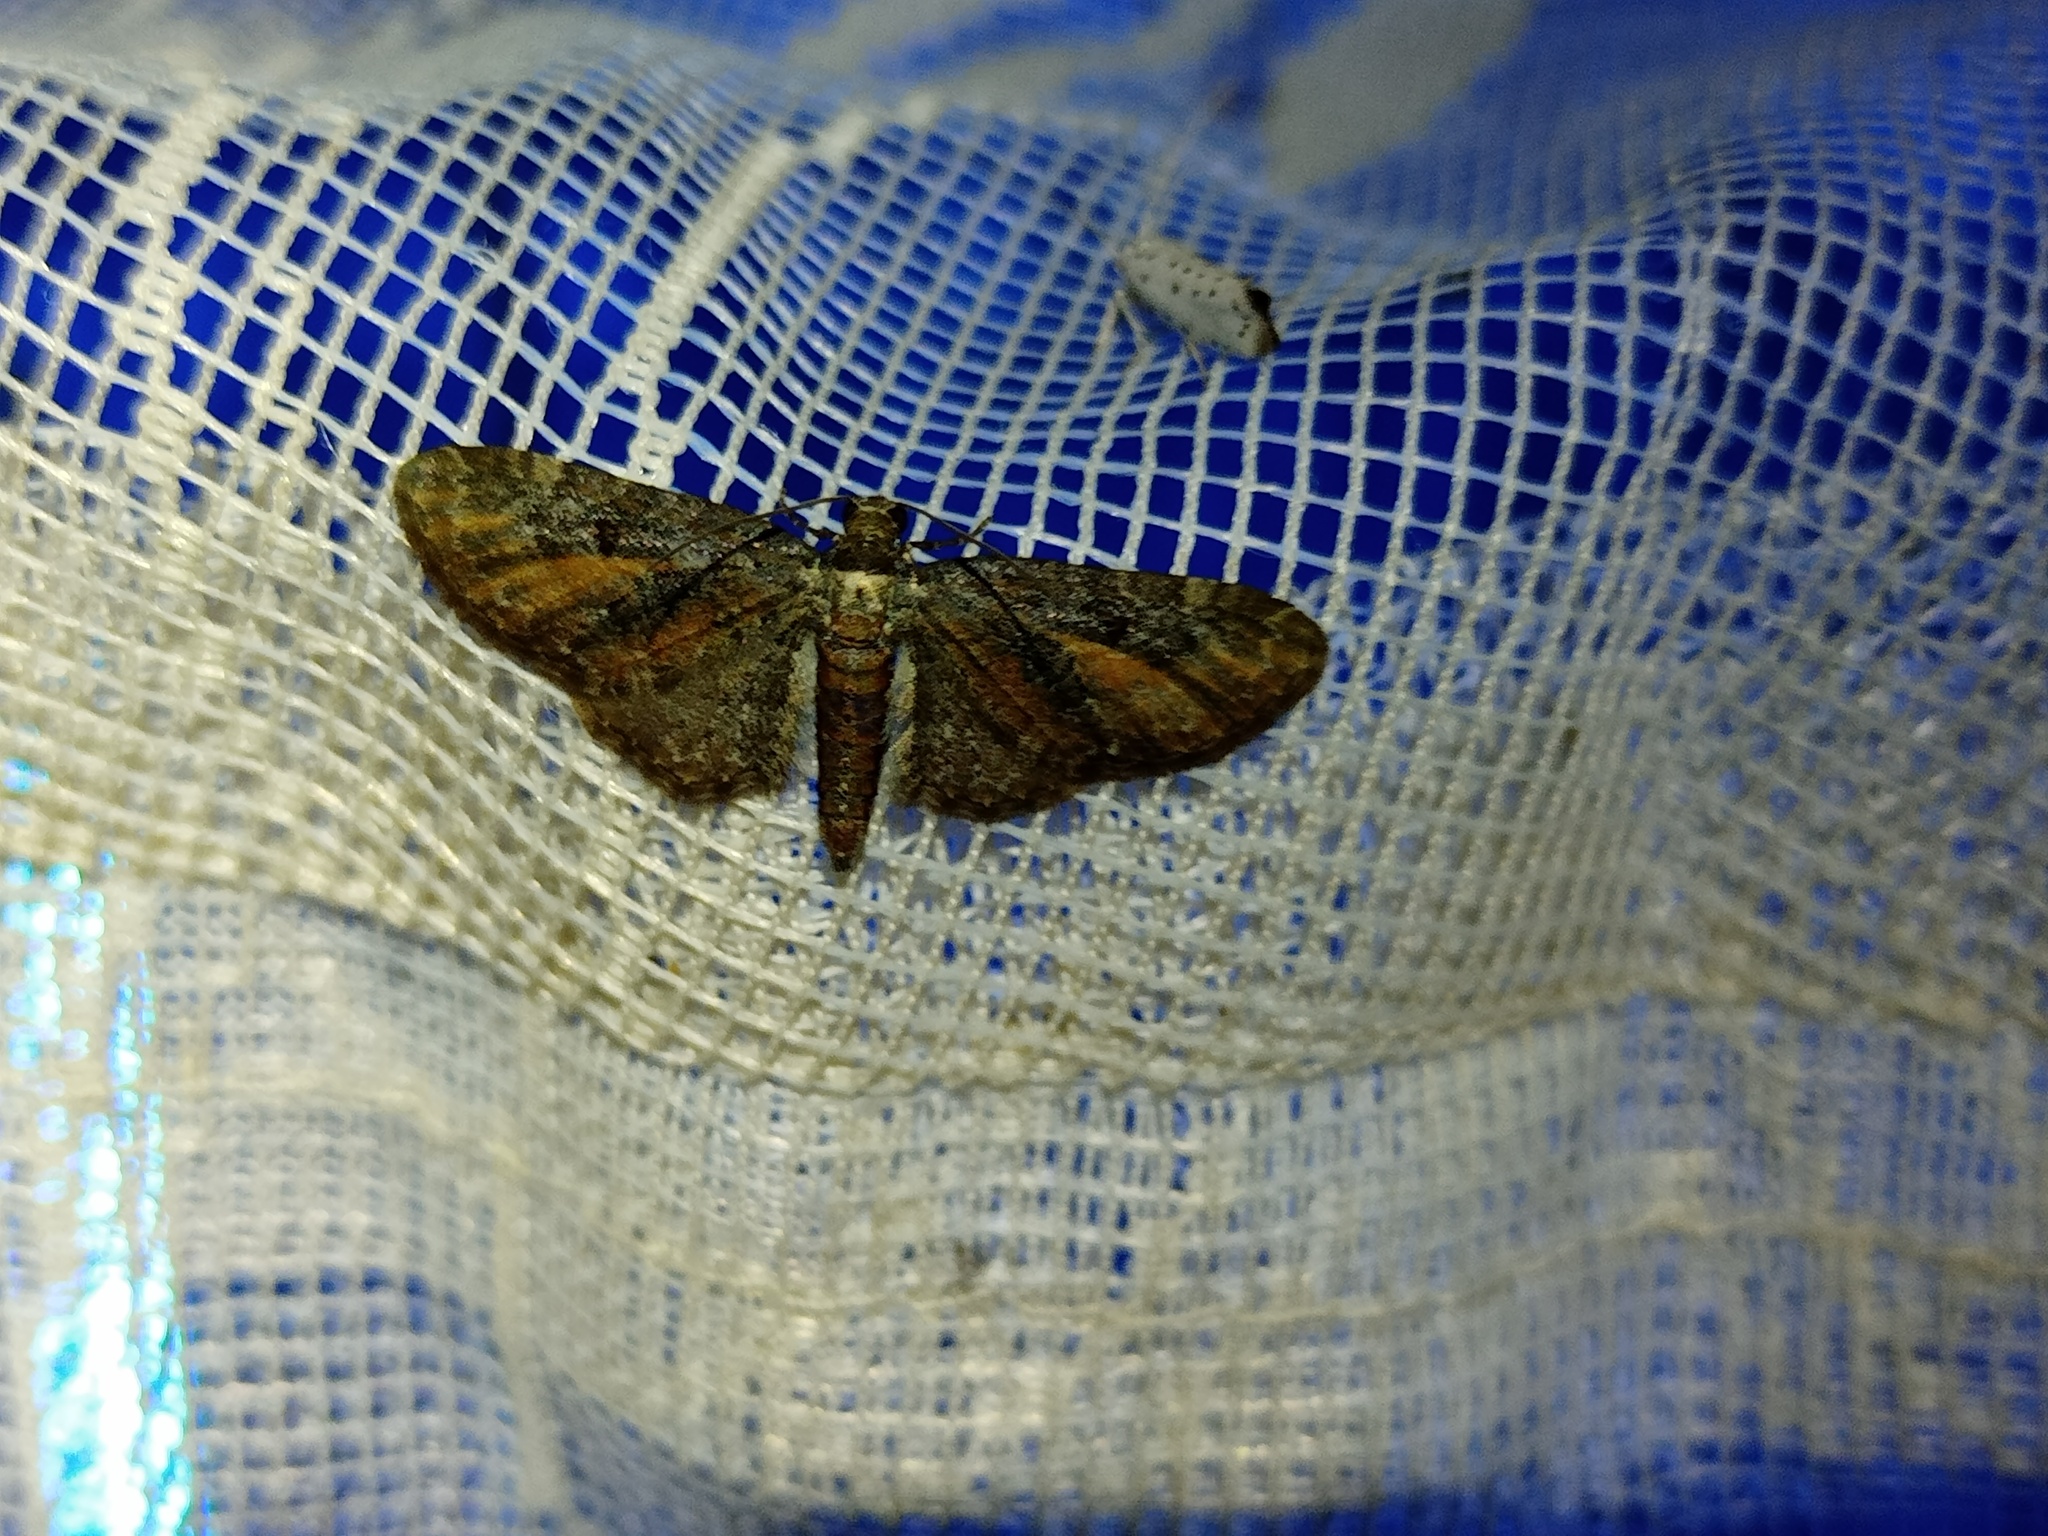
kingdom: Animalia
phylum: Arthropoda
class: Insecta
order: Lepidoptera
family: Geometridae
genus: Eupithecia
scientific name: Eupithecia icterata
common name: Tawny speckled pug
